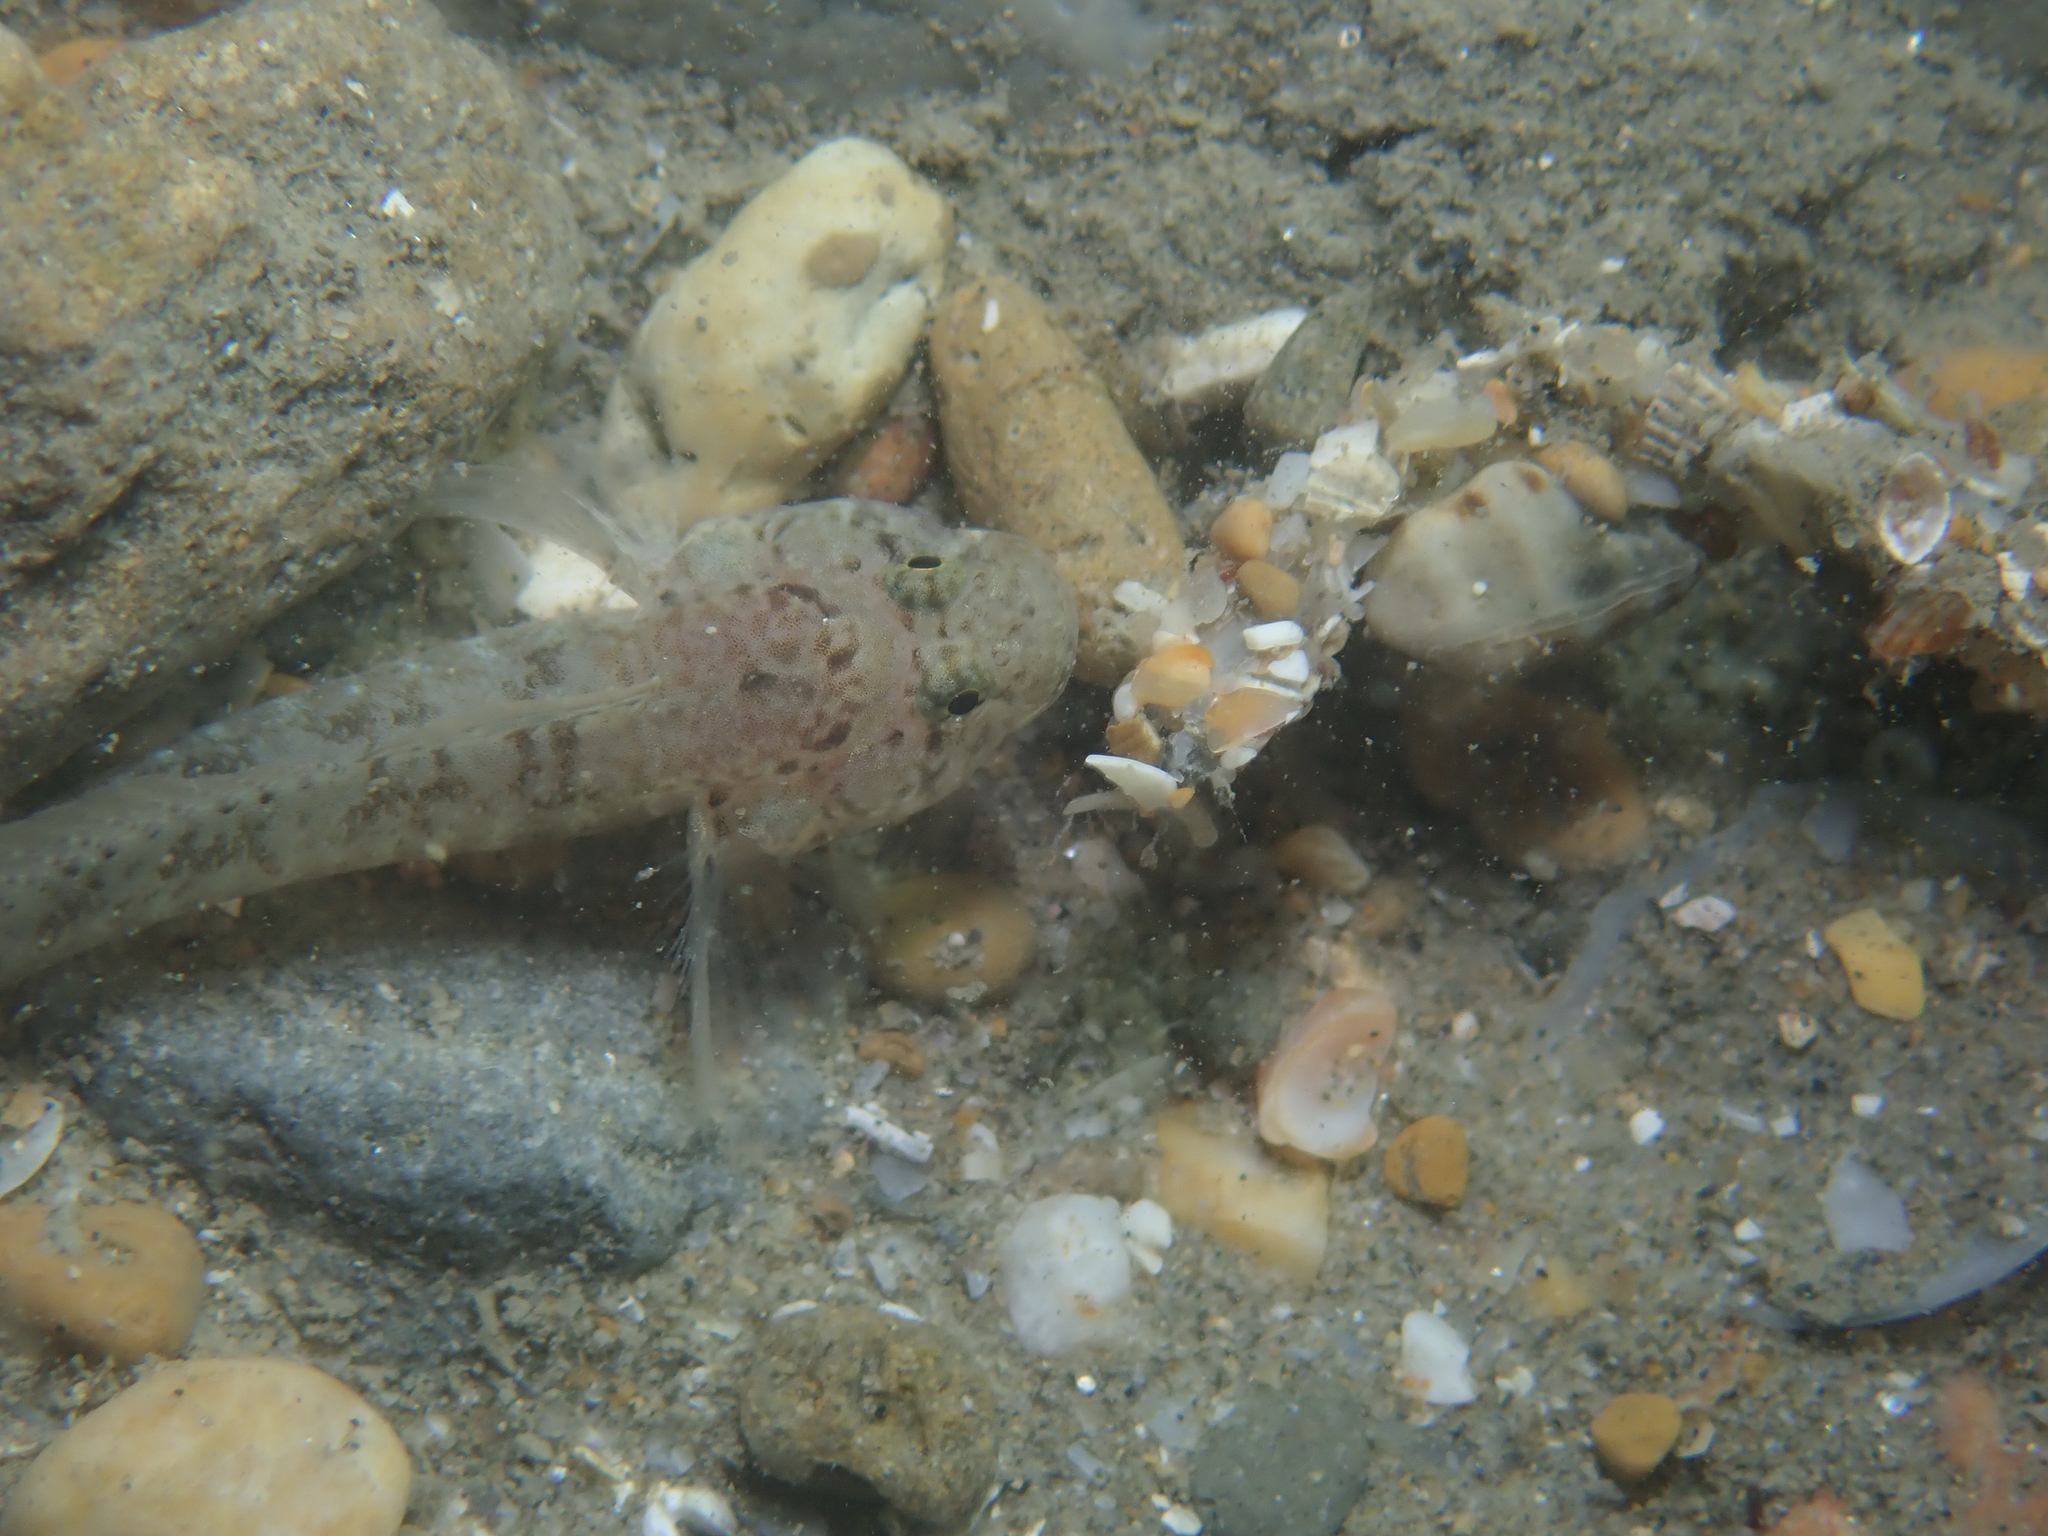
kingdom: Animalia
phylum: Chordata
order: Perciformes
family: Gobiidae
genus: Zebrus
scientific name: Zebrus pallaoroi
